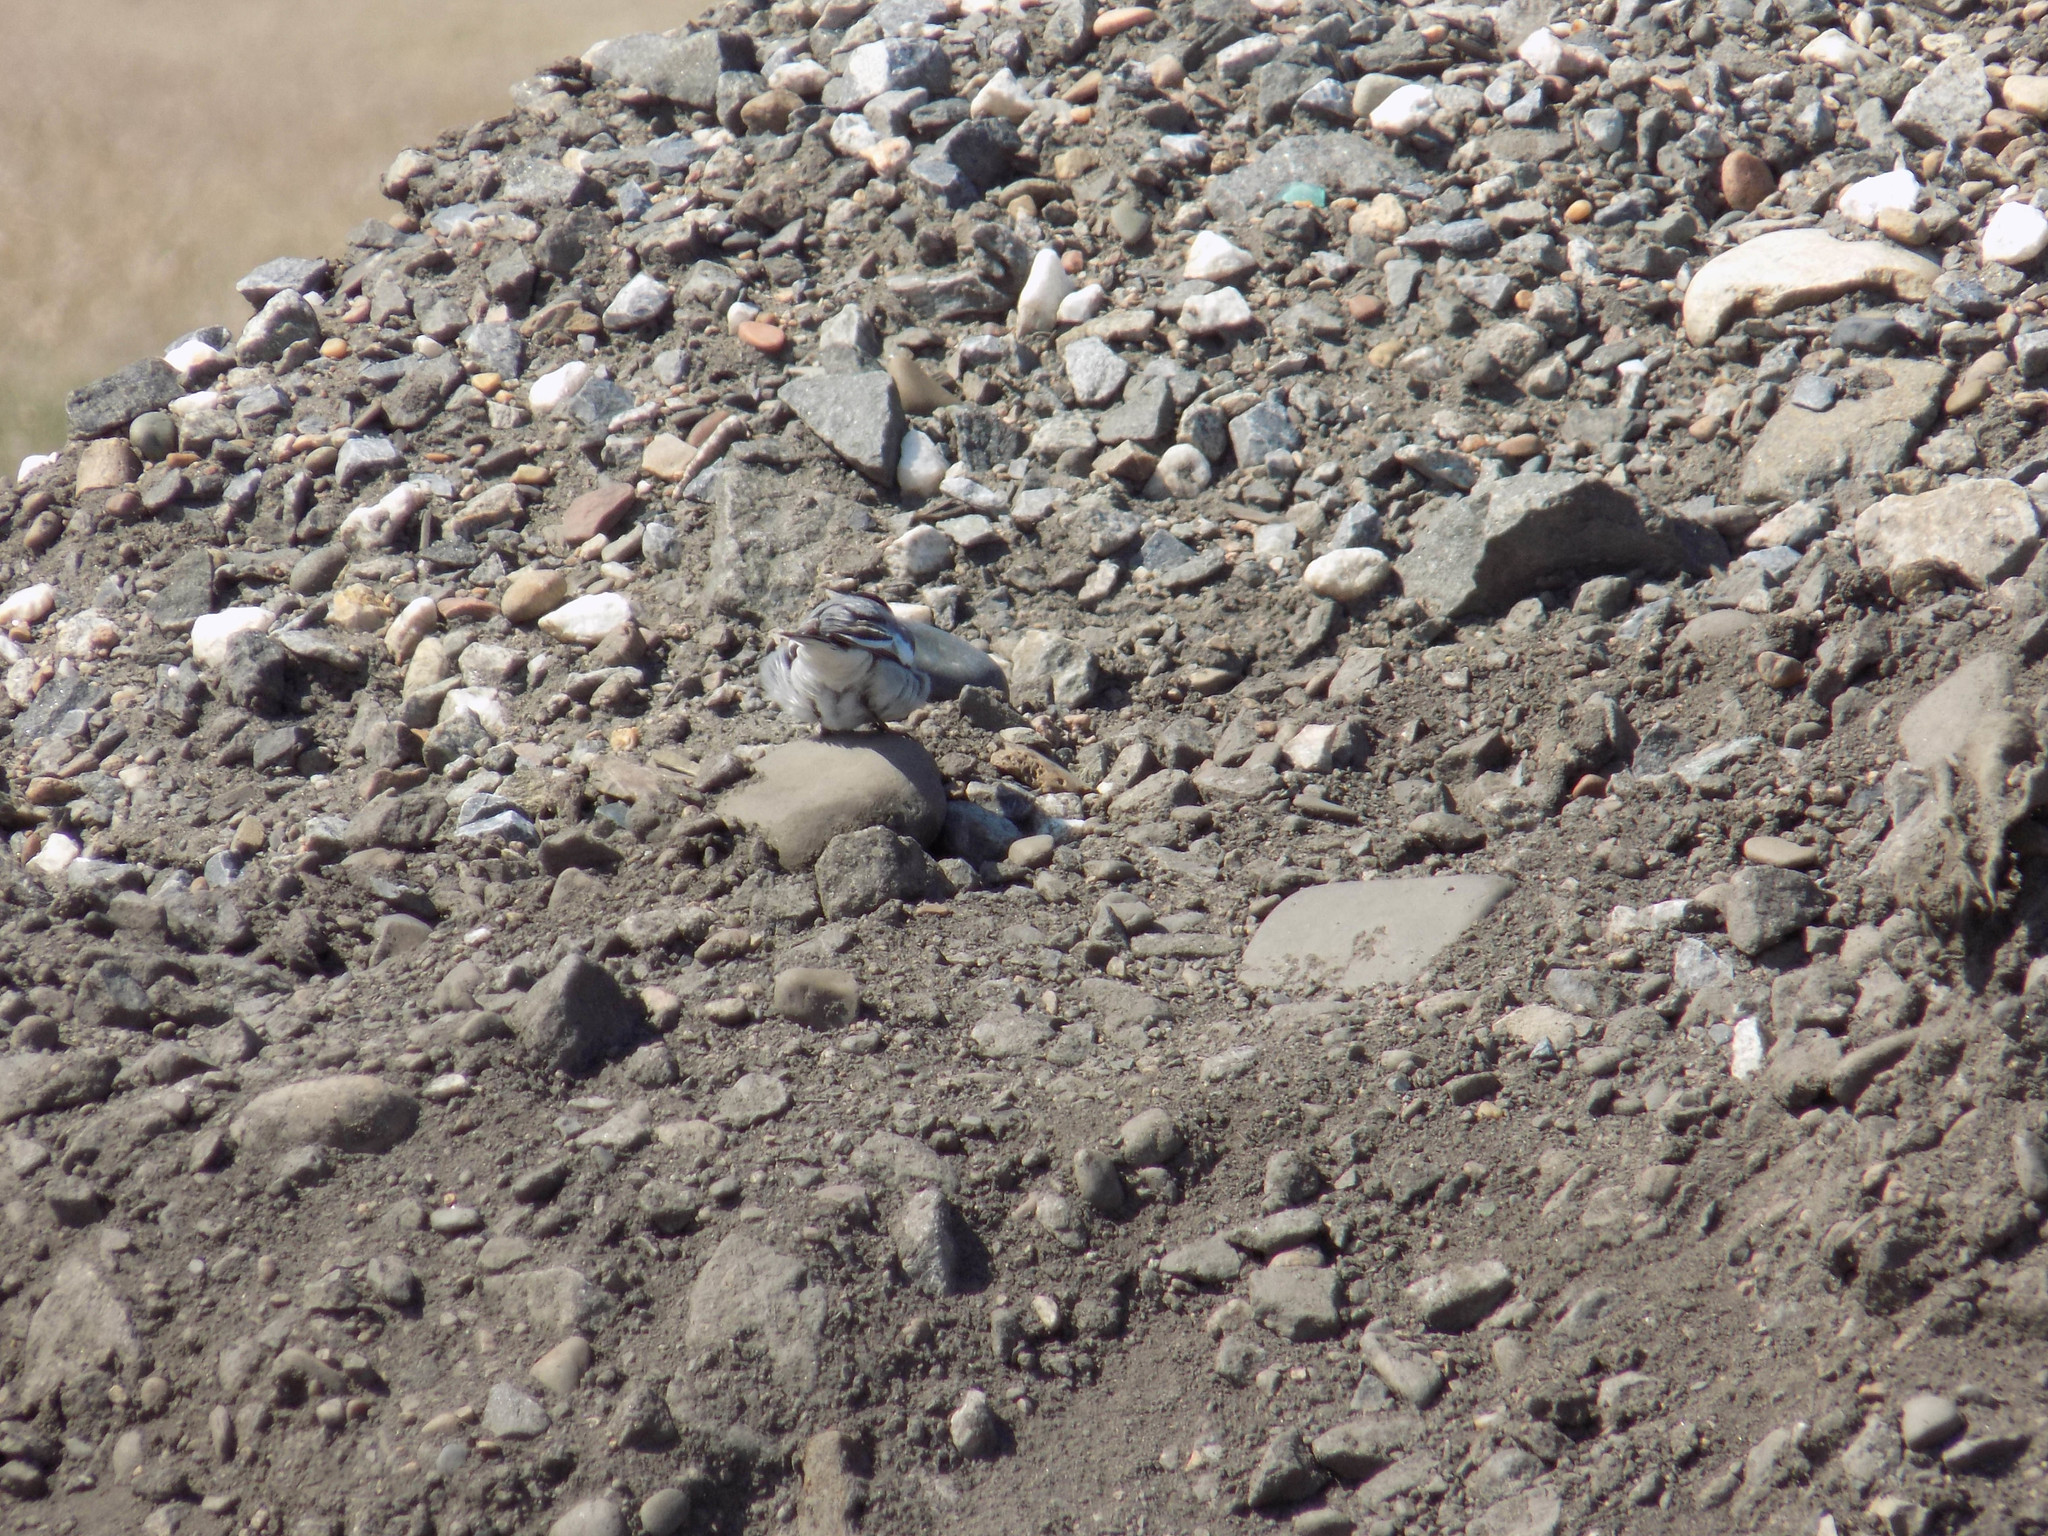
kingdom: Animalia
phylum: Chordata
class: Aves
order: Passeriformes
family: Motacillidae
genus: Motacilla
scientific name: Motacilla alba
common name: White wagtail
